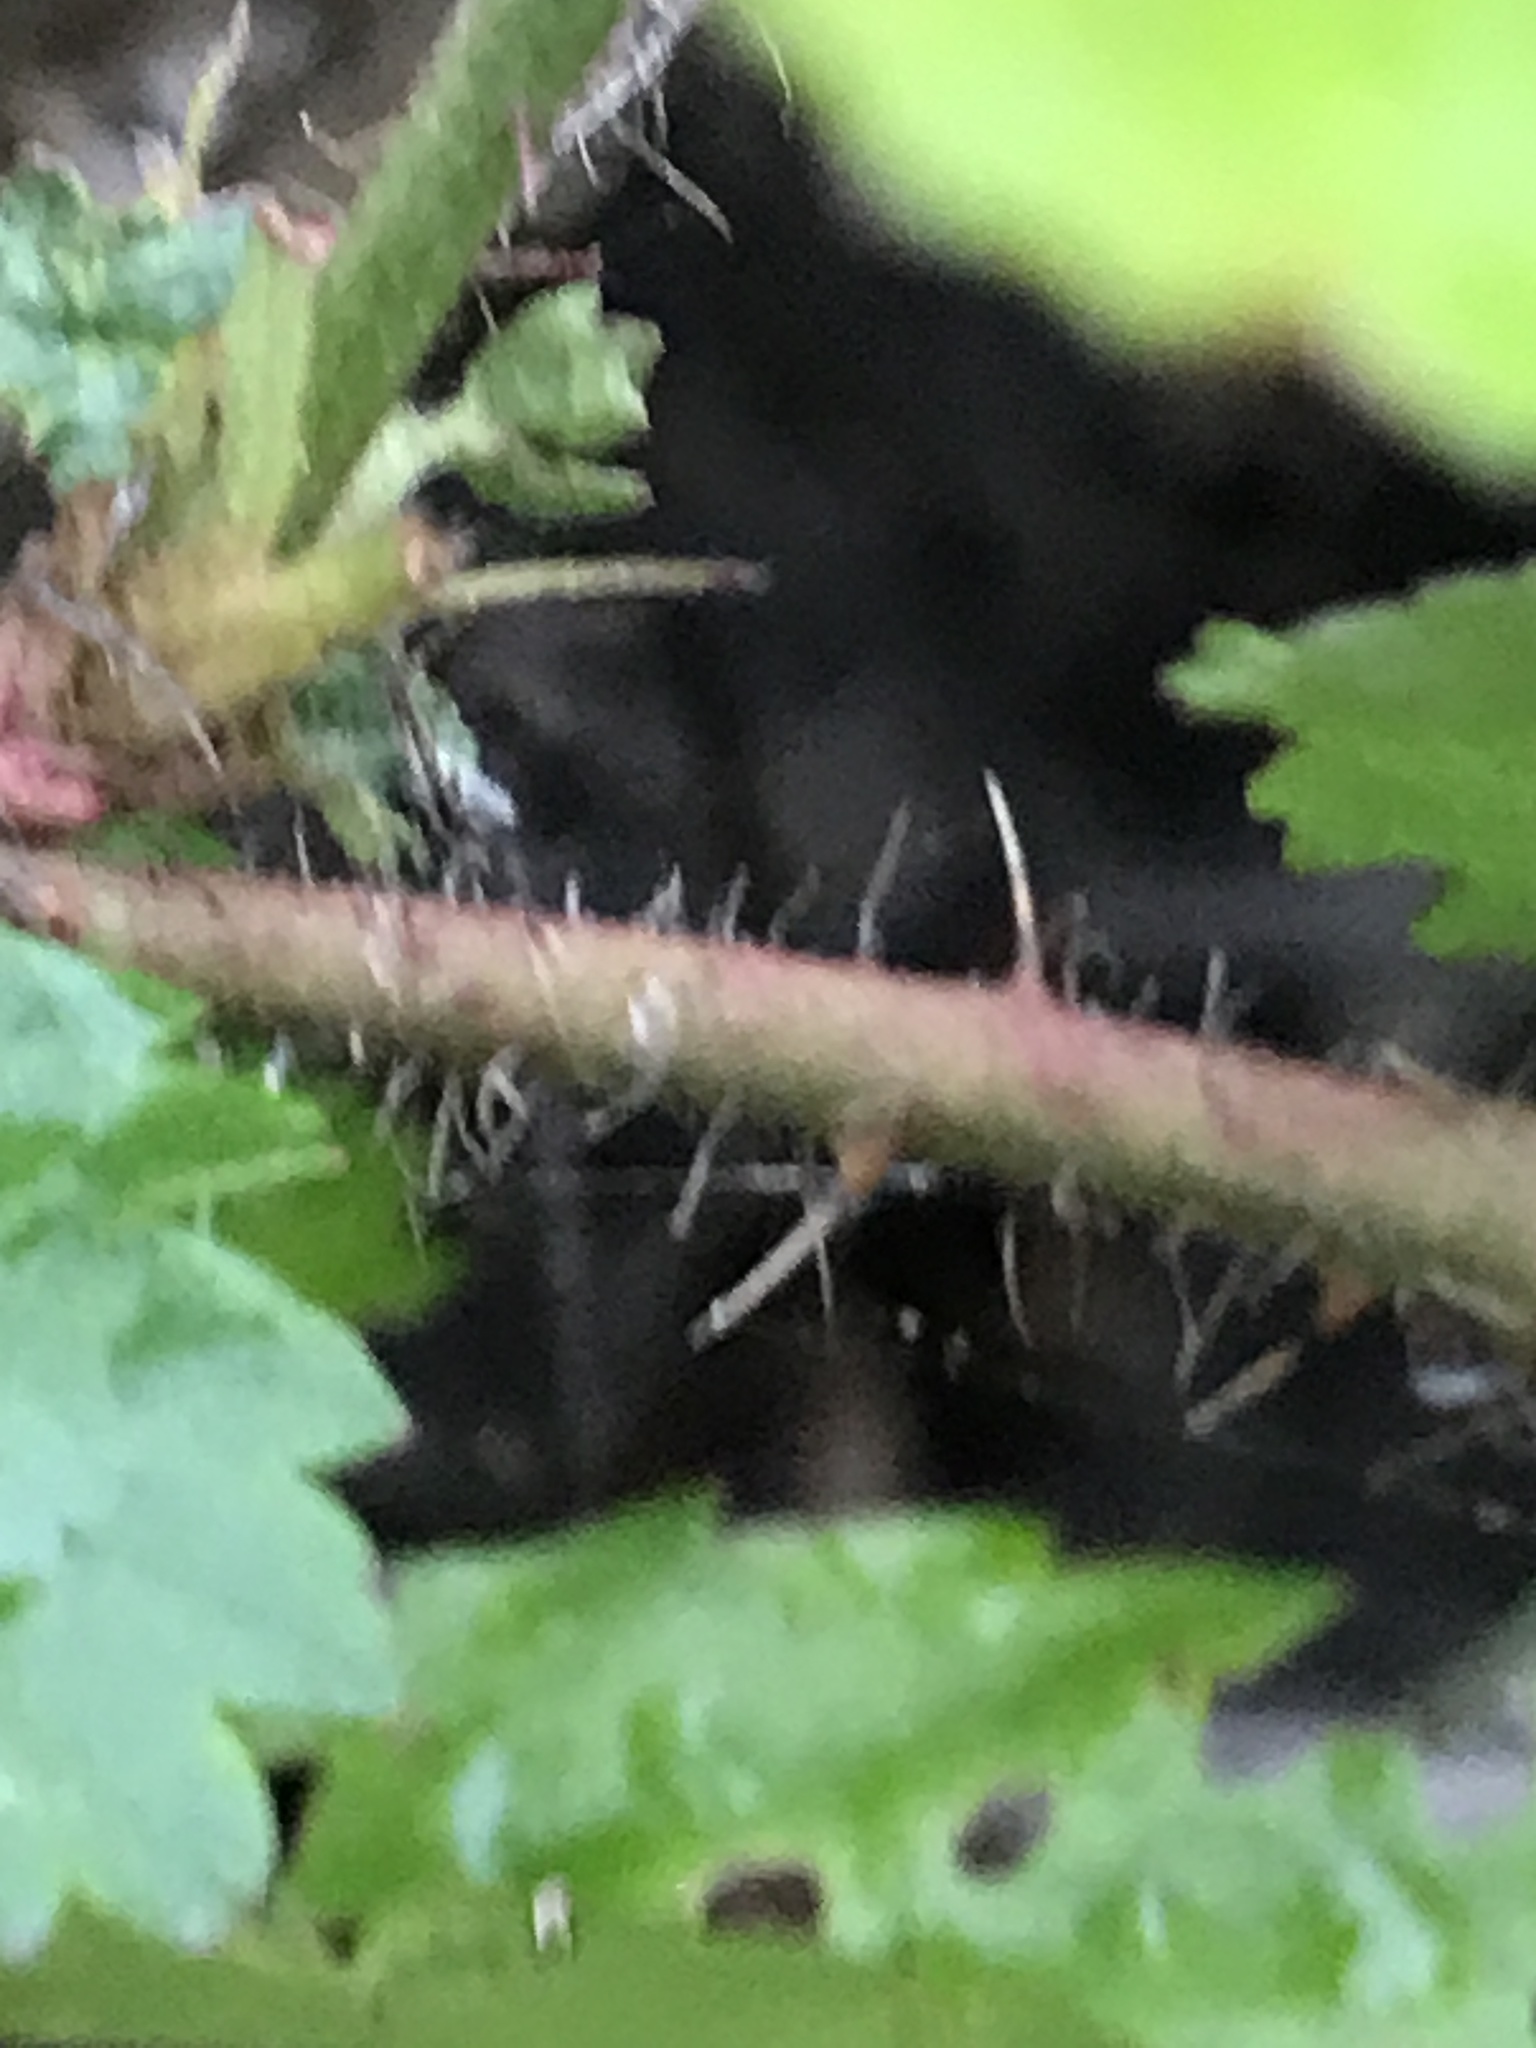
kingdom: Plantae
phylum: Tracheophyta
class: Magnoliopsida
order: Rosales
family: Rosaceae
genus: Rubus
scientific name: Rubus trivialis
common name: Southern dewberry
